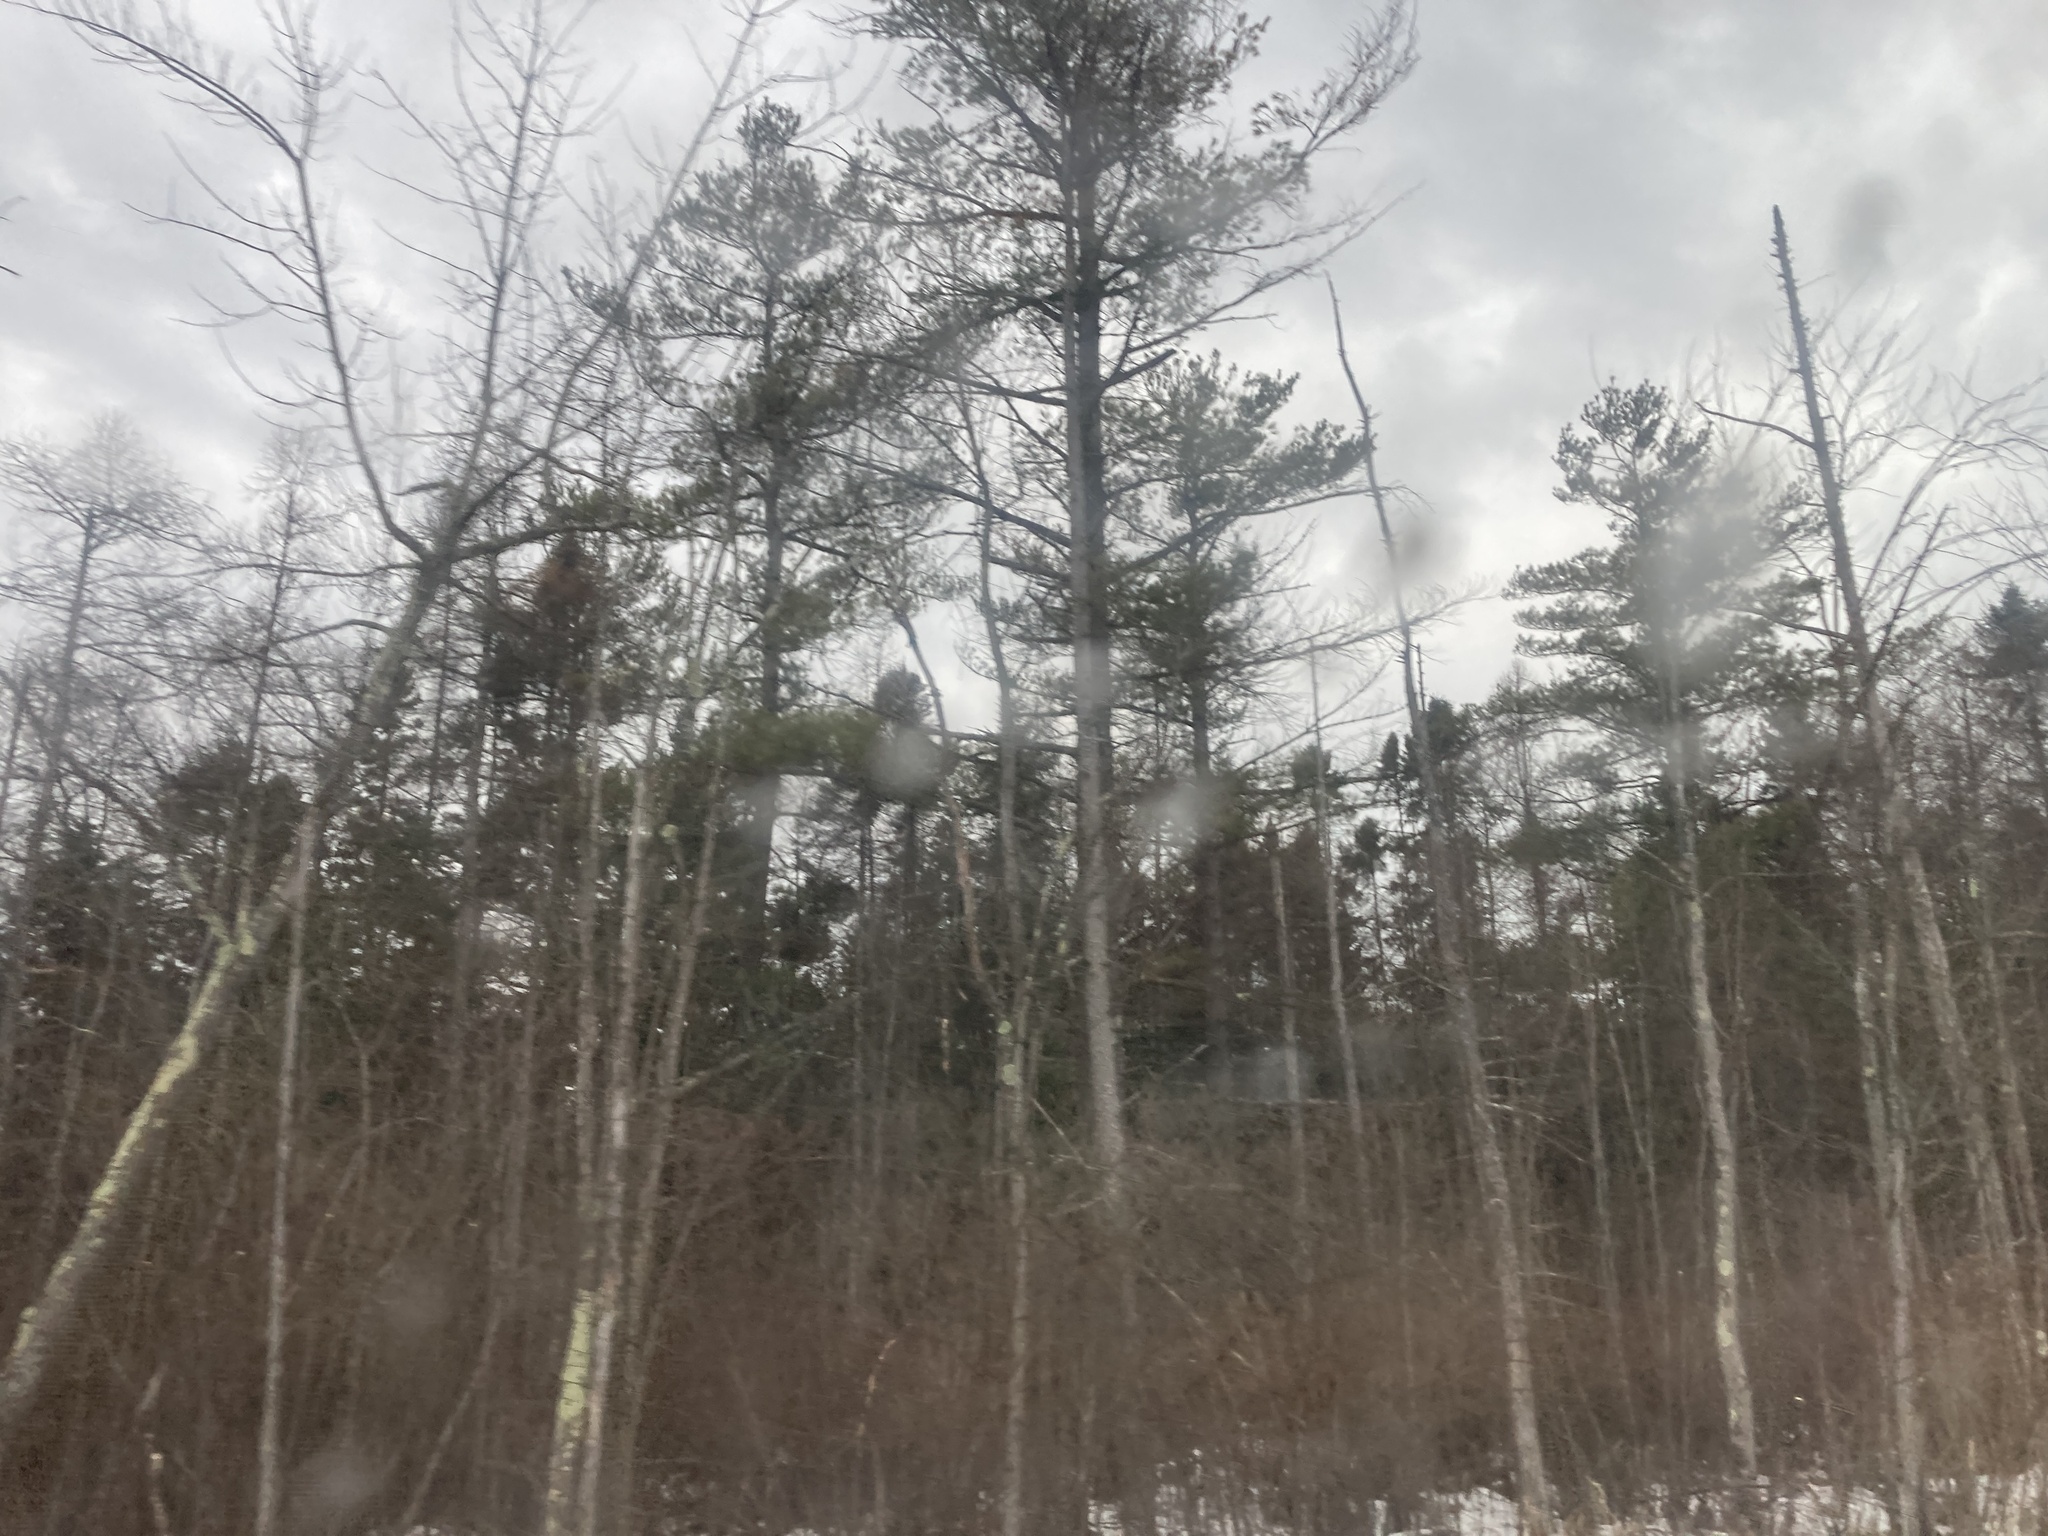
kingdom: Plantae
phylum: Tracheophyta
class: Pinopsida
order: Pinales
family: Pinaceae
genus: Pinus
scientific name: Pinus strobus
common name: Weymouth pine
